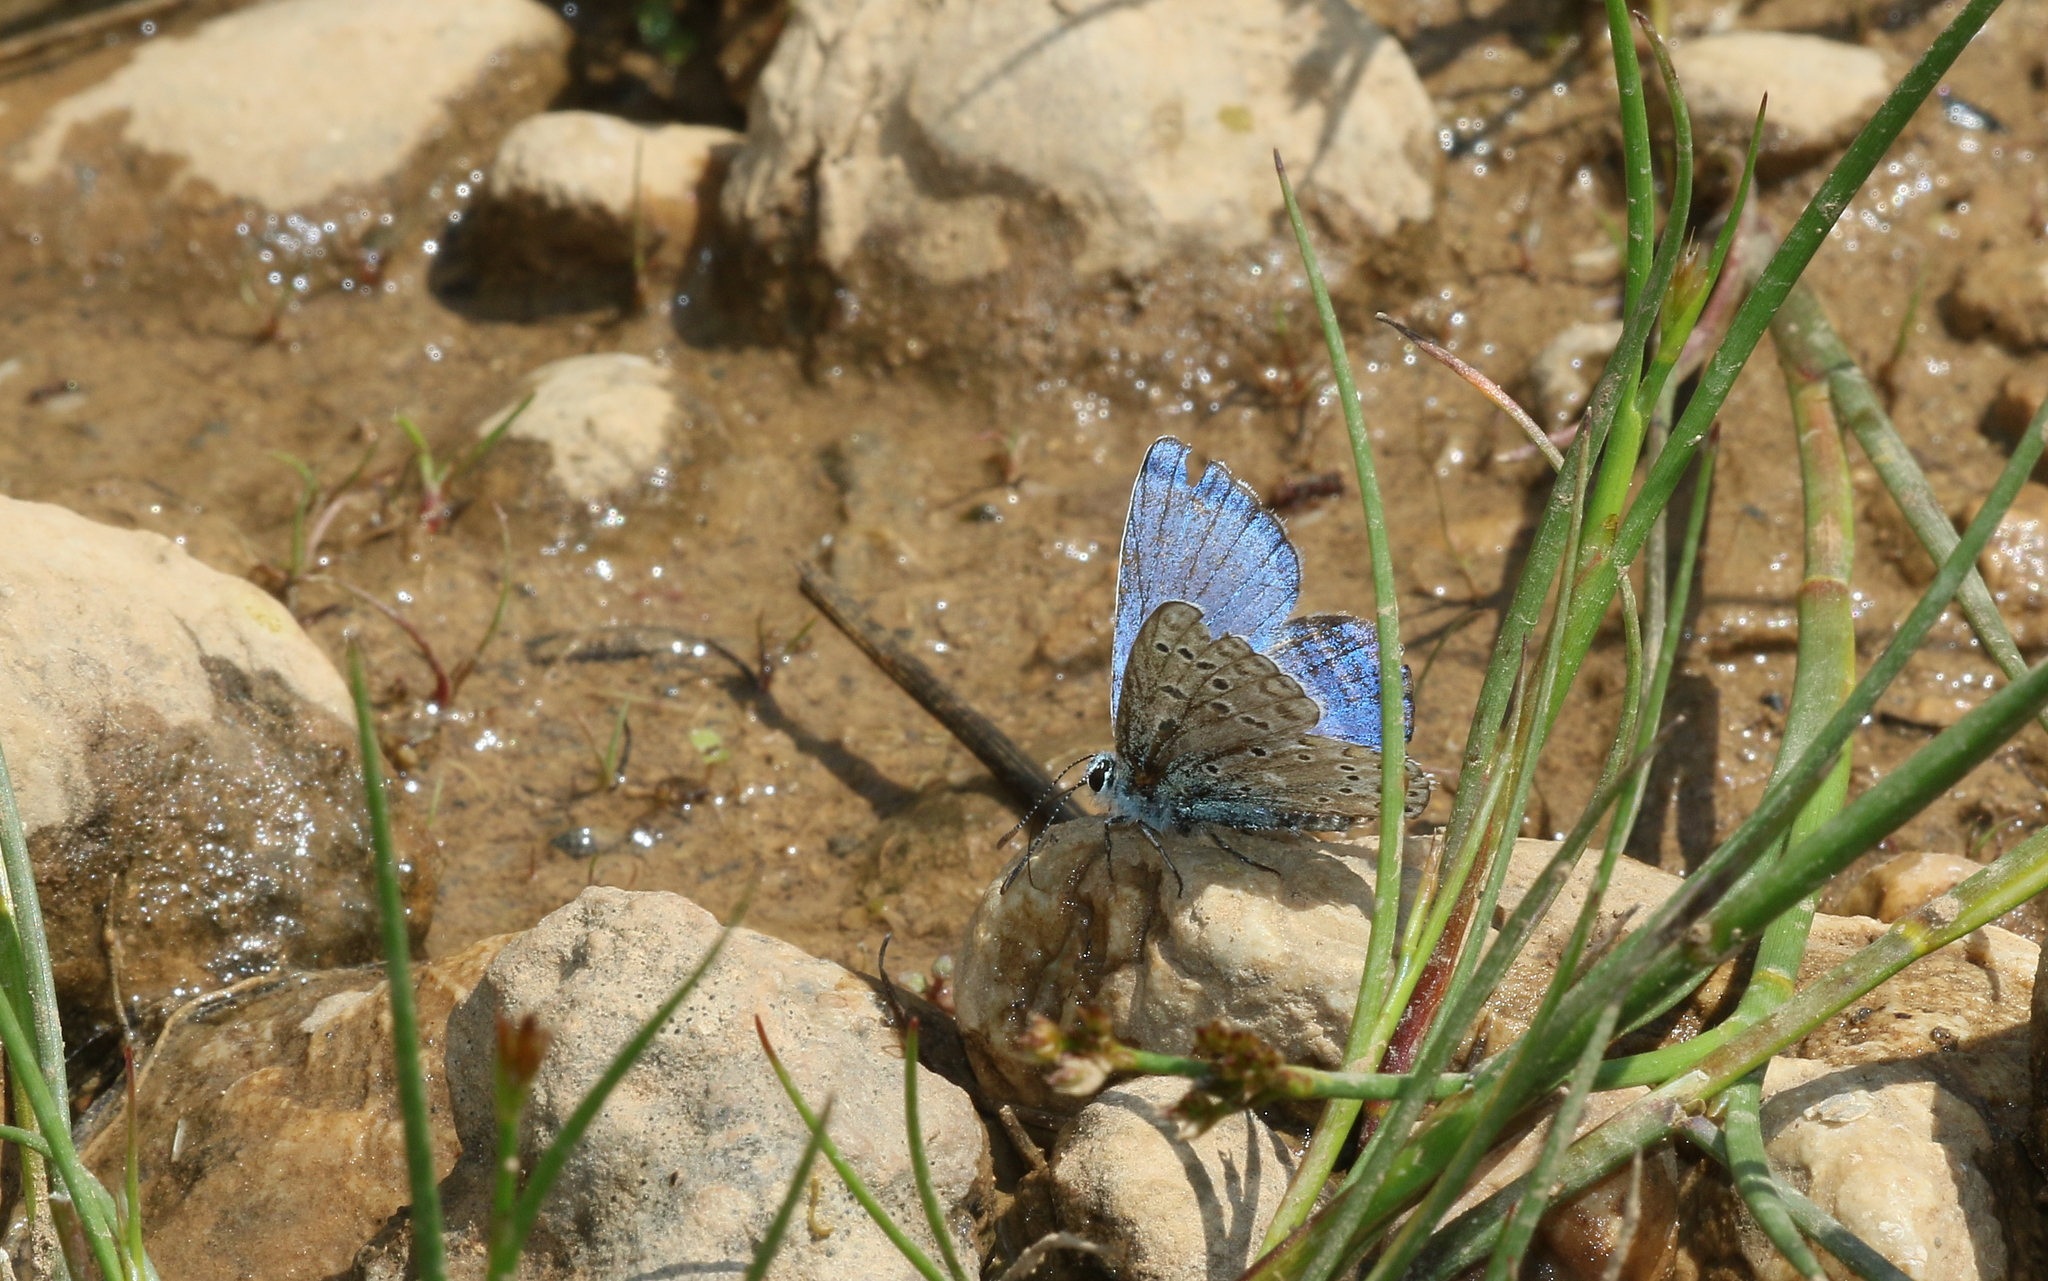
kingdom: Animalia
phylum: Arthropoda
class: Insecta
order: Lepidoptera
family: Lycaenidae
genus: Lysandra
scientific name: Lysandra bellargus
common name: Adonis blue
